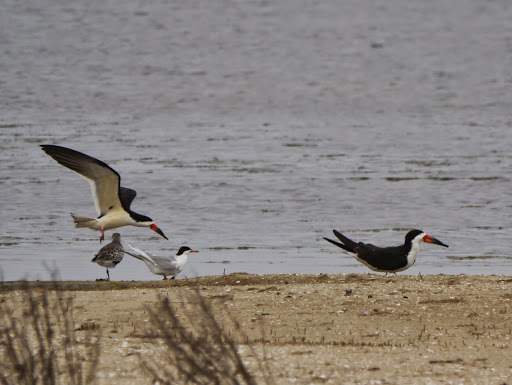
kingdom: Animalia
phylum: Chordata
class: Aves
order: Charadriiformes
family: Laridae
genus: Rynchops
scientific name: Rynchops niger
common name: Black skimmer
